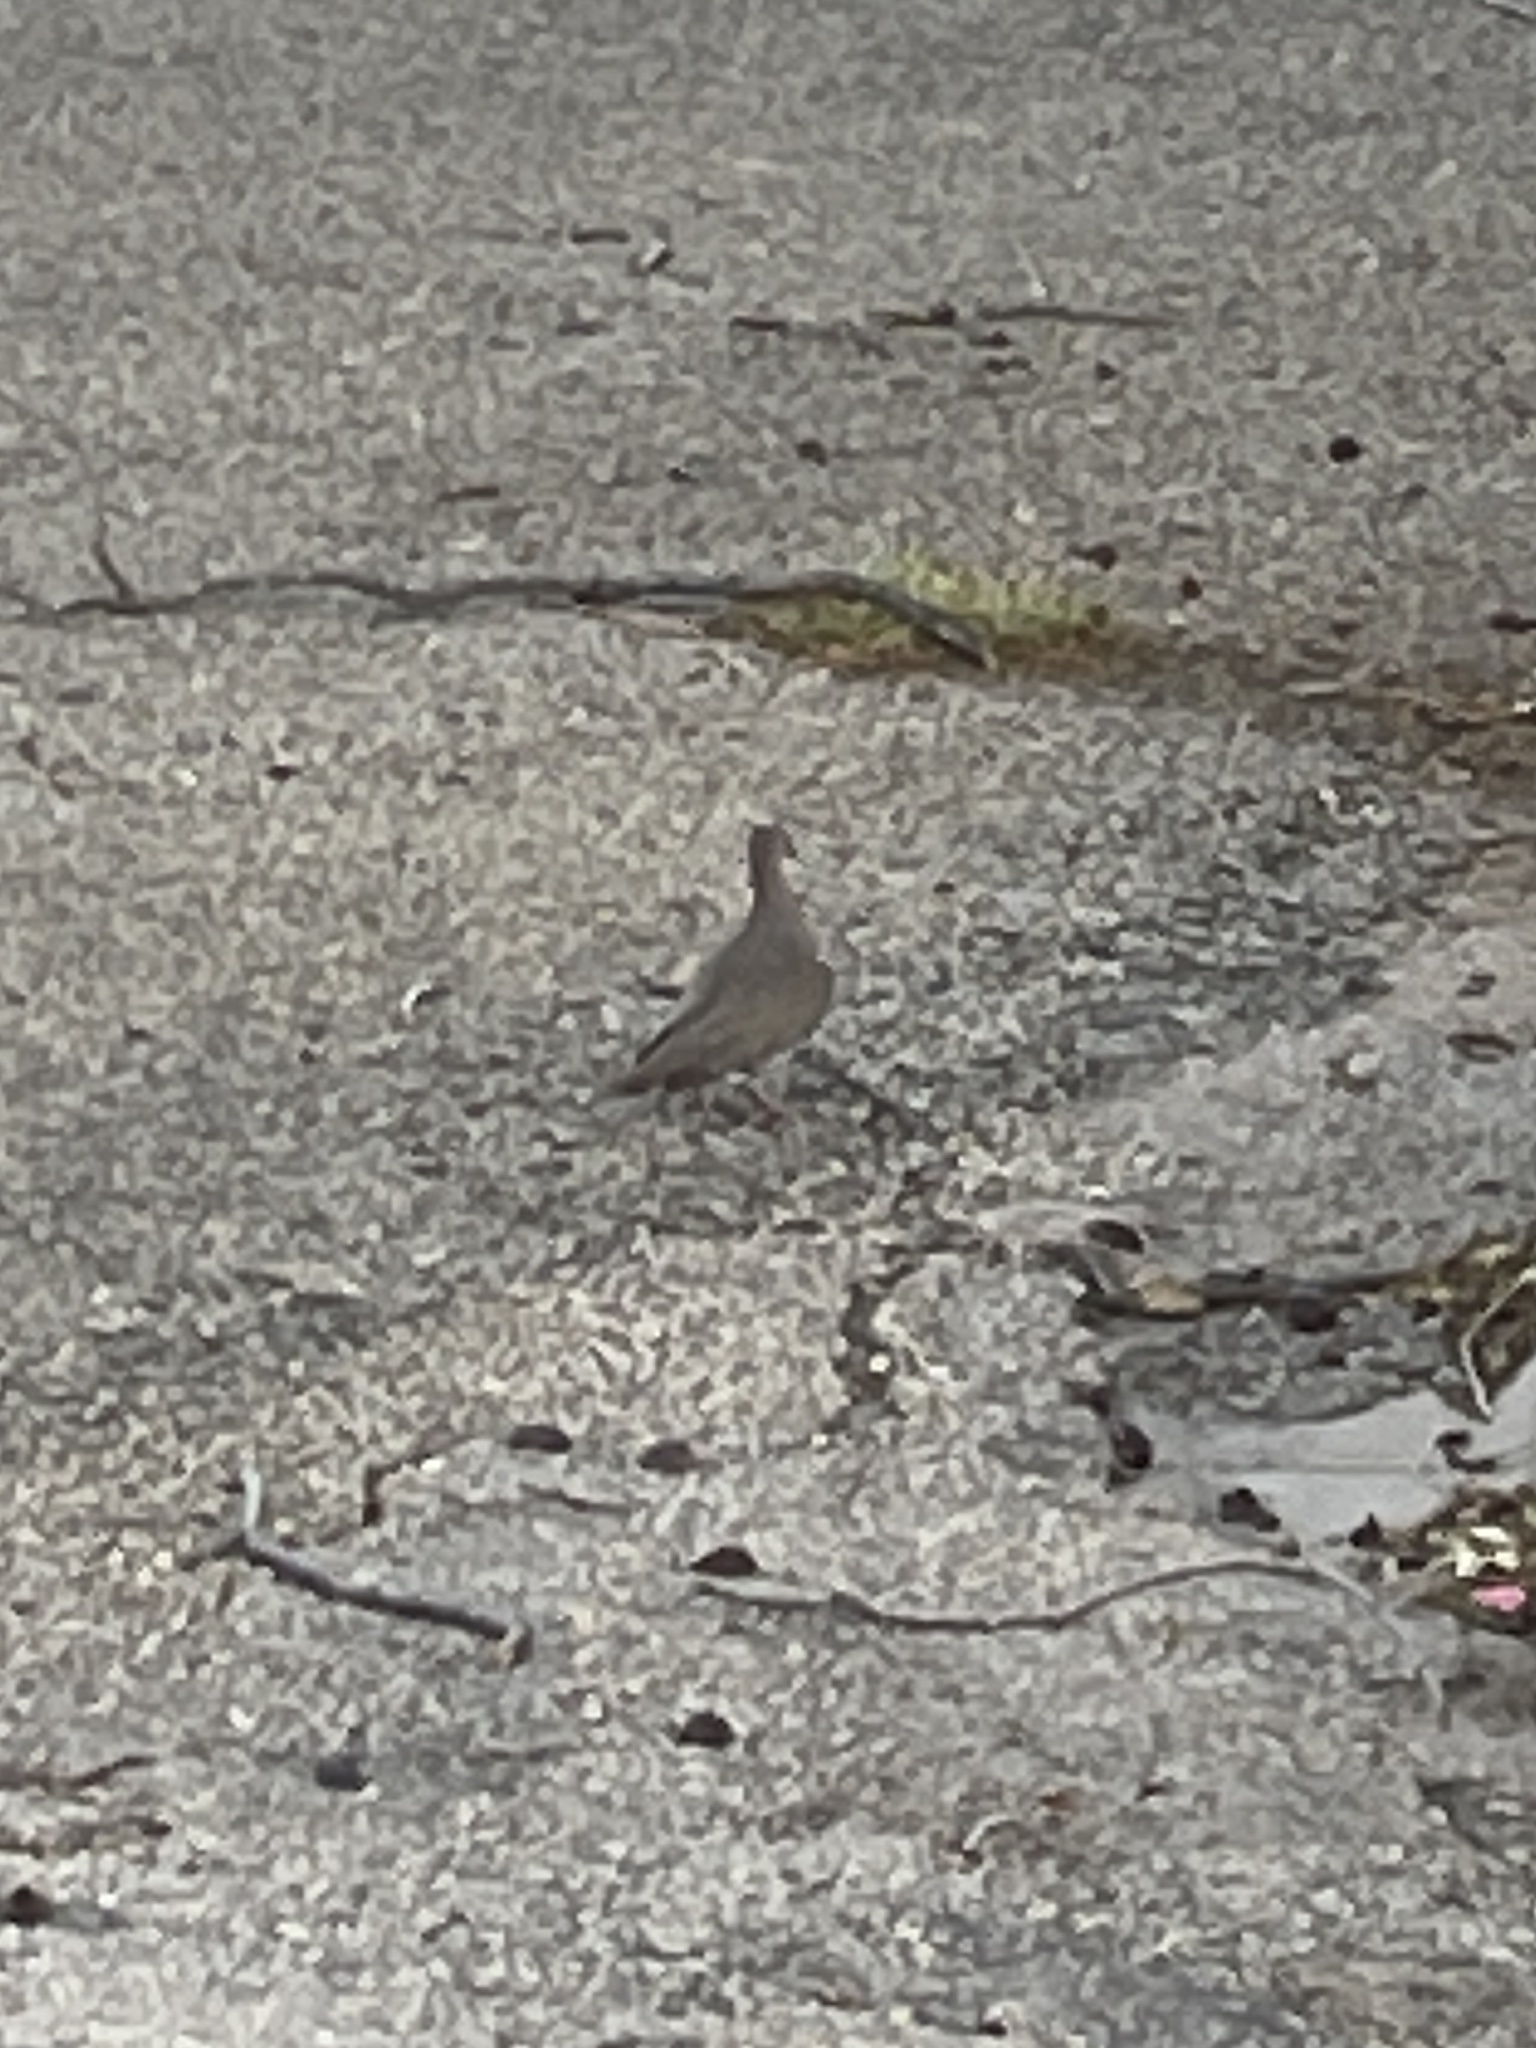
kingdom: Animalia
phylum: Chordata
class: Aves
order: Columbiformes
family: Columbidae
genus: Zenaida
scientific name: Zenaida macroura
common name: Mourning dove
